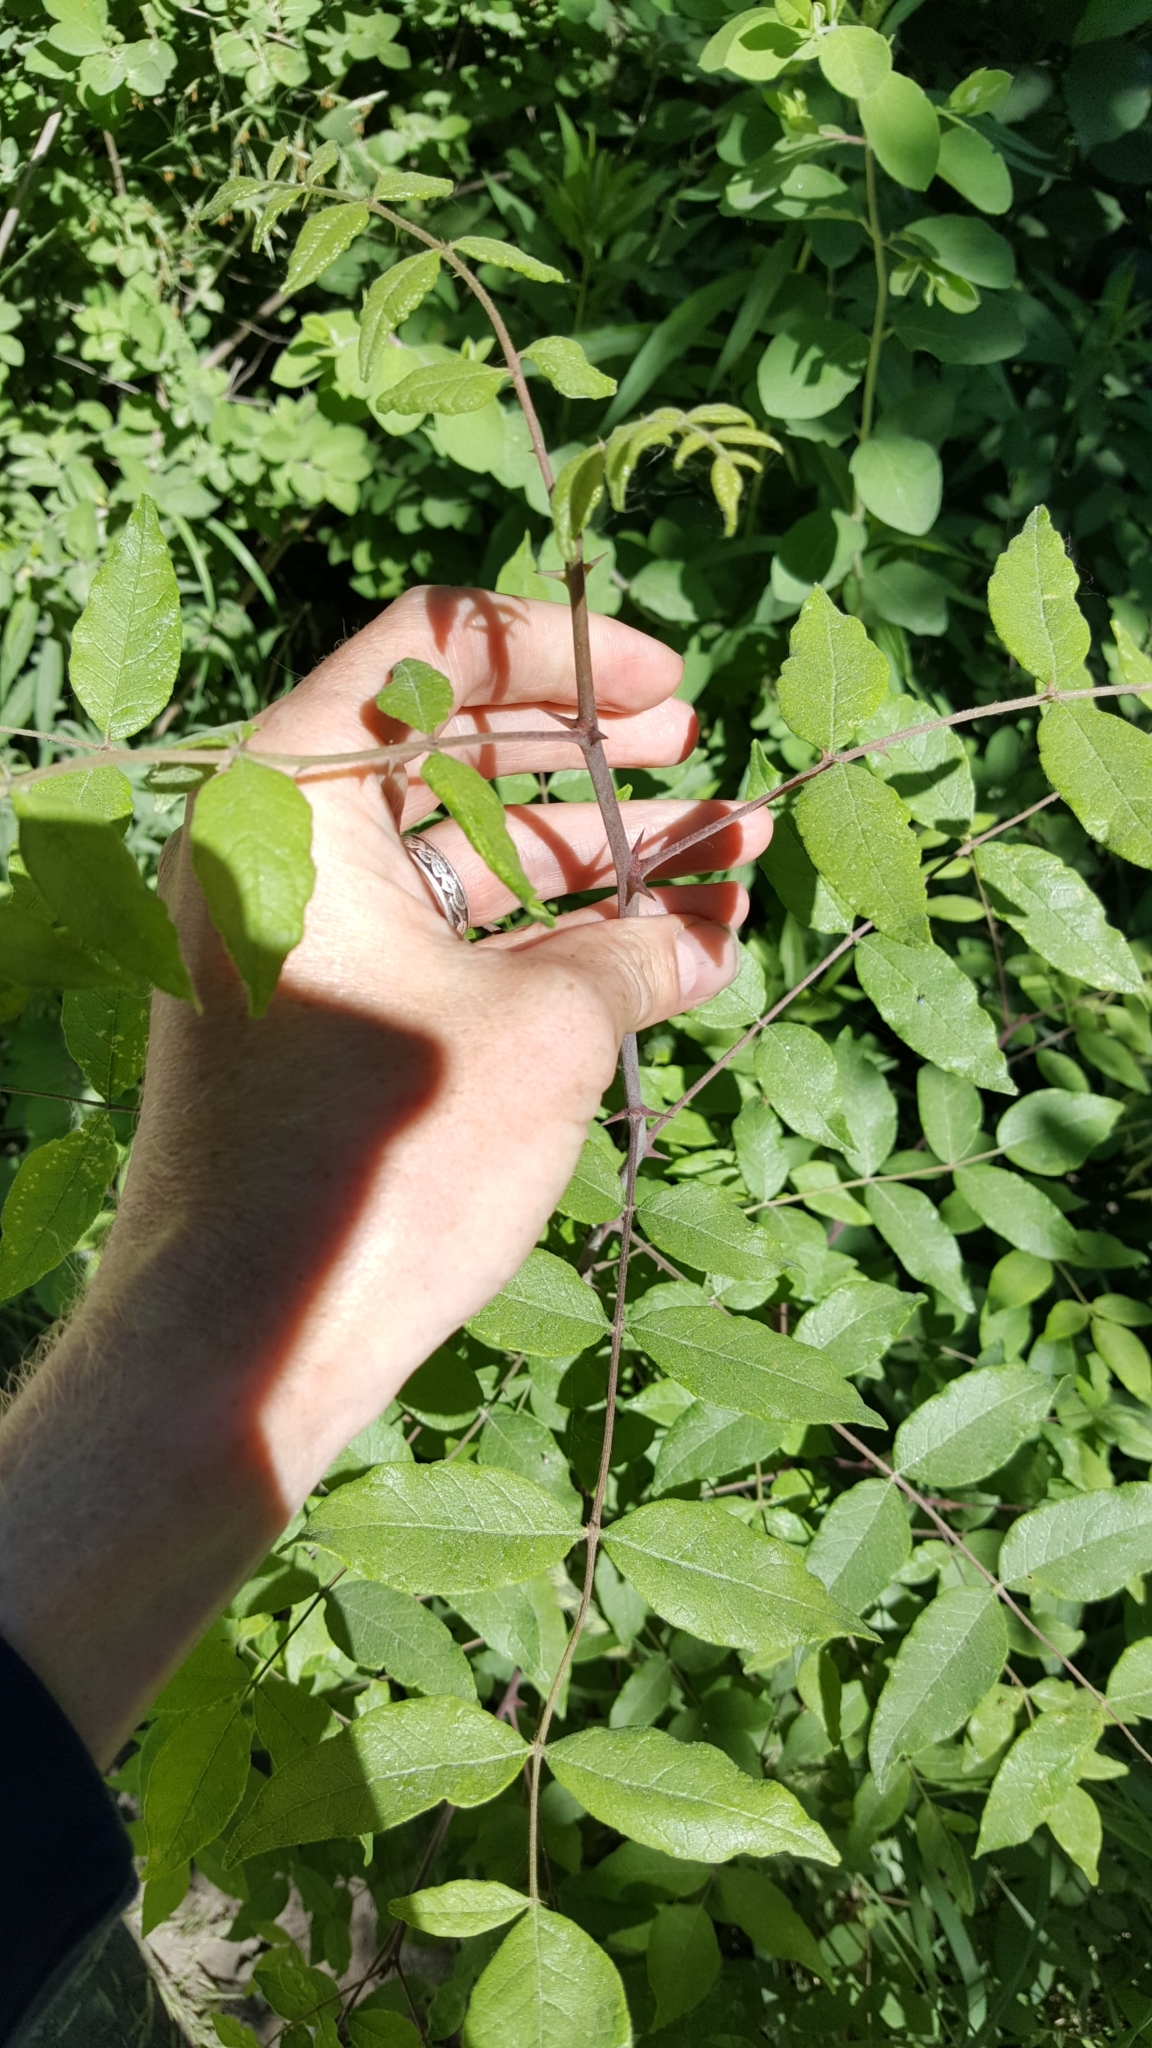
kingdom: Plantae
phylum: Tracheophyta
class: Magnoliopsida
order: Sapindales
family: Rutaceae
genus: Zanthoxylum
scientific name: Zanthoxylum americanum
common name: Northern prickly-ash
